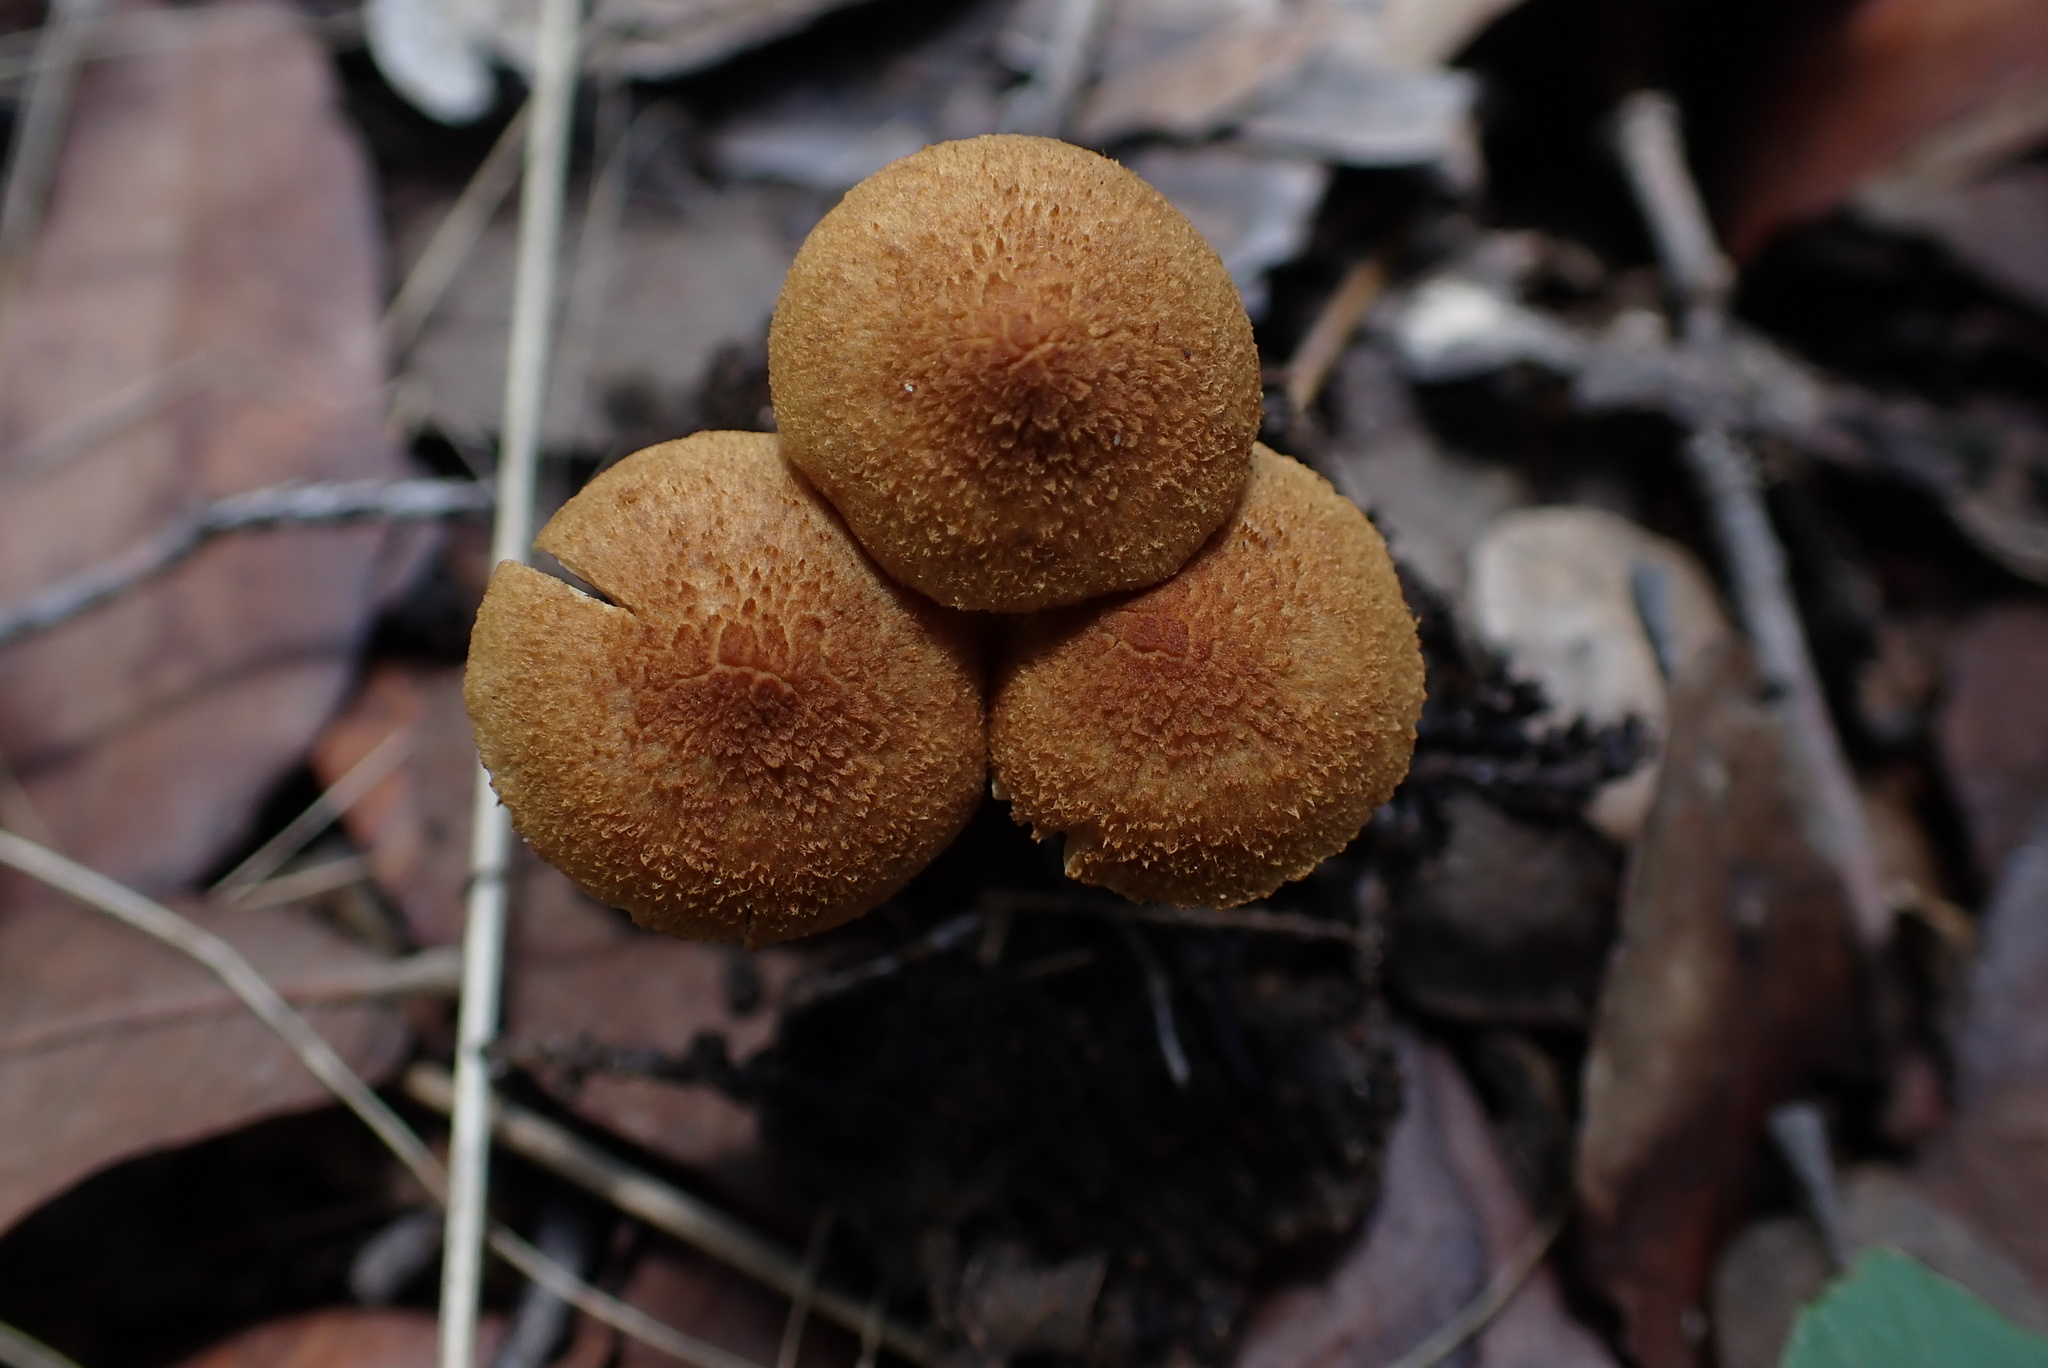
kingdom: Fungi
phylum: Basidiomycota
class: Agaricomycetes
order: Agaricales
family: Inocybaceae
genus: Mallocybe
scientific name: Mallocybe multispora
